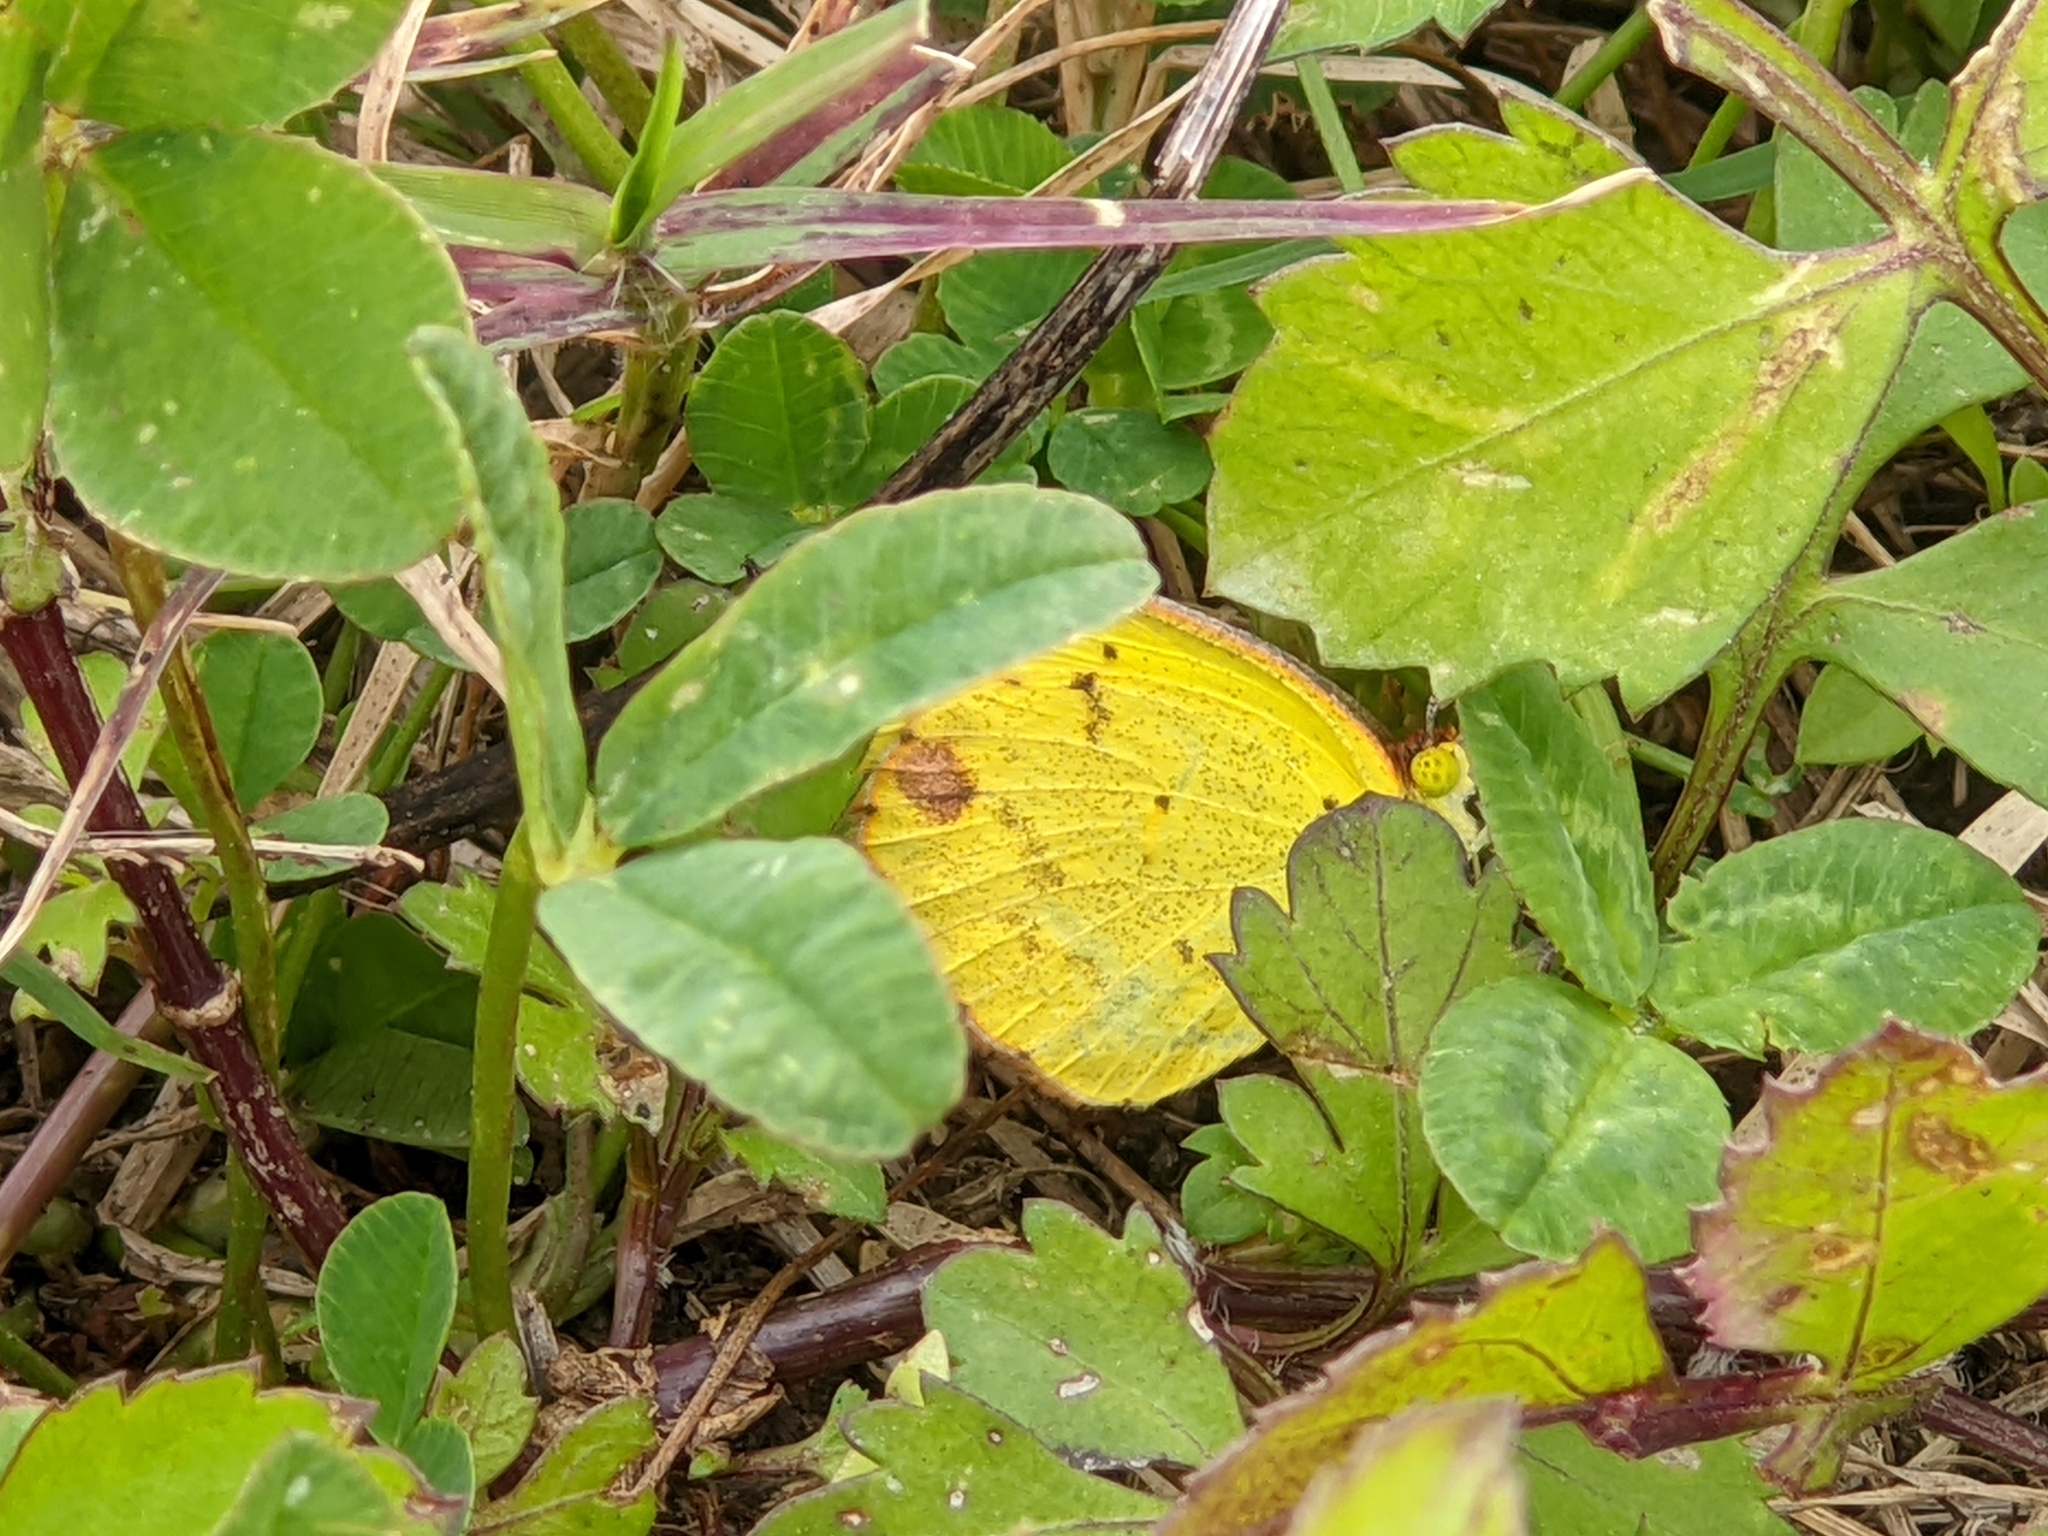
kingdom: Animalia
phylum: Arthropoda
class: Insecta
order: Lepidoptera
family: Pieridae
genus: Pyrisitia
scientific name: Pyrisitia lisa
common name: Little yellow
